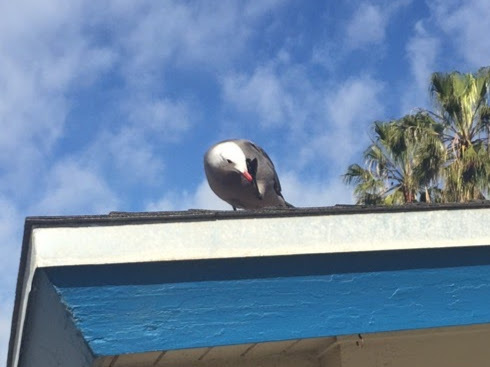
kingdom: Animalia
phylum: Chordata
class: Aves
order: Charadriiformes
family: Laridae
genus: Larus
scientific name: Larus heermanni
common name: Heermann's gull
